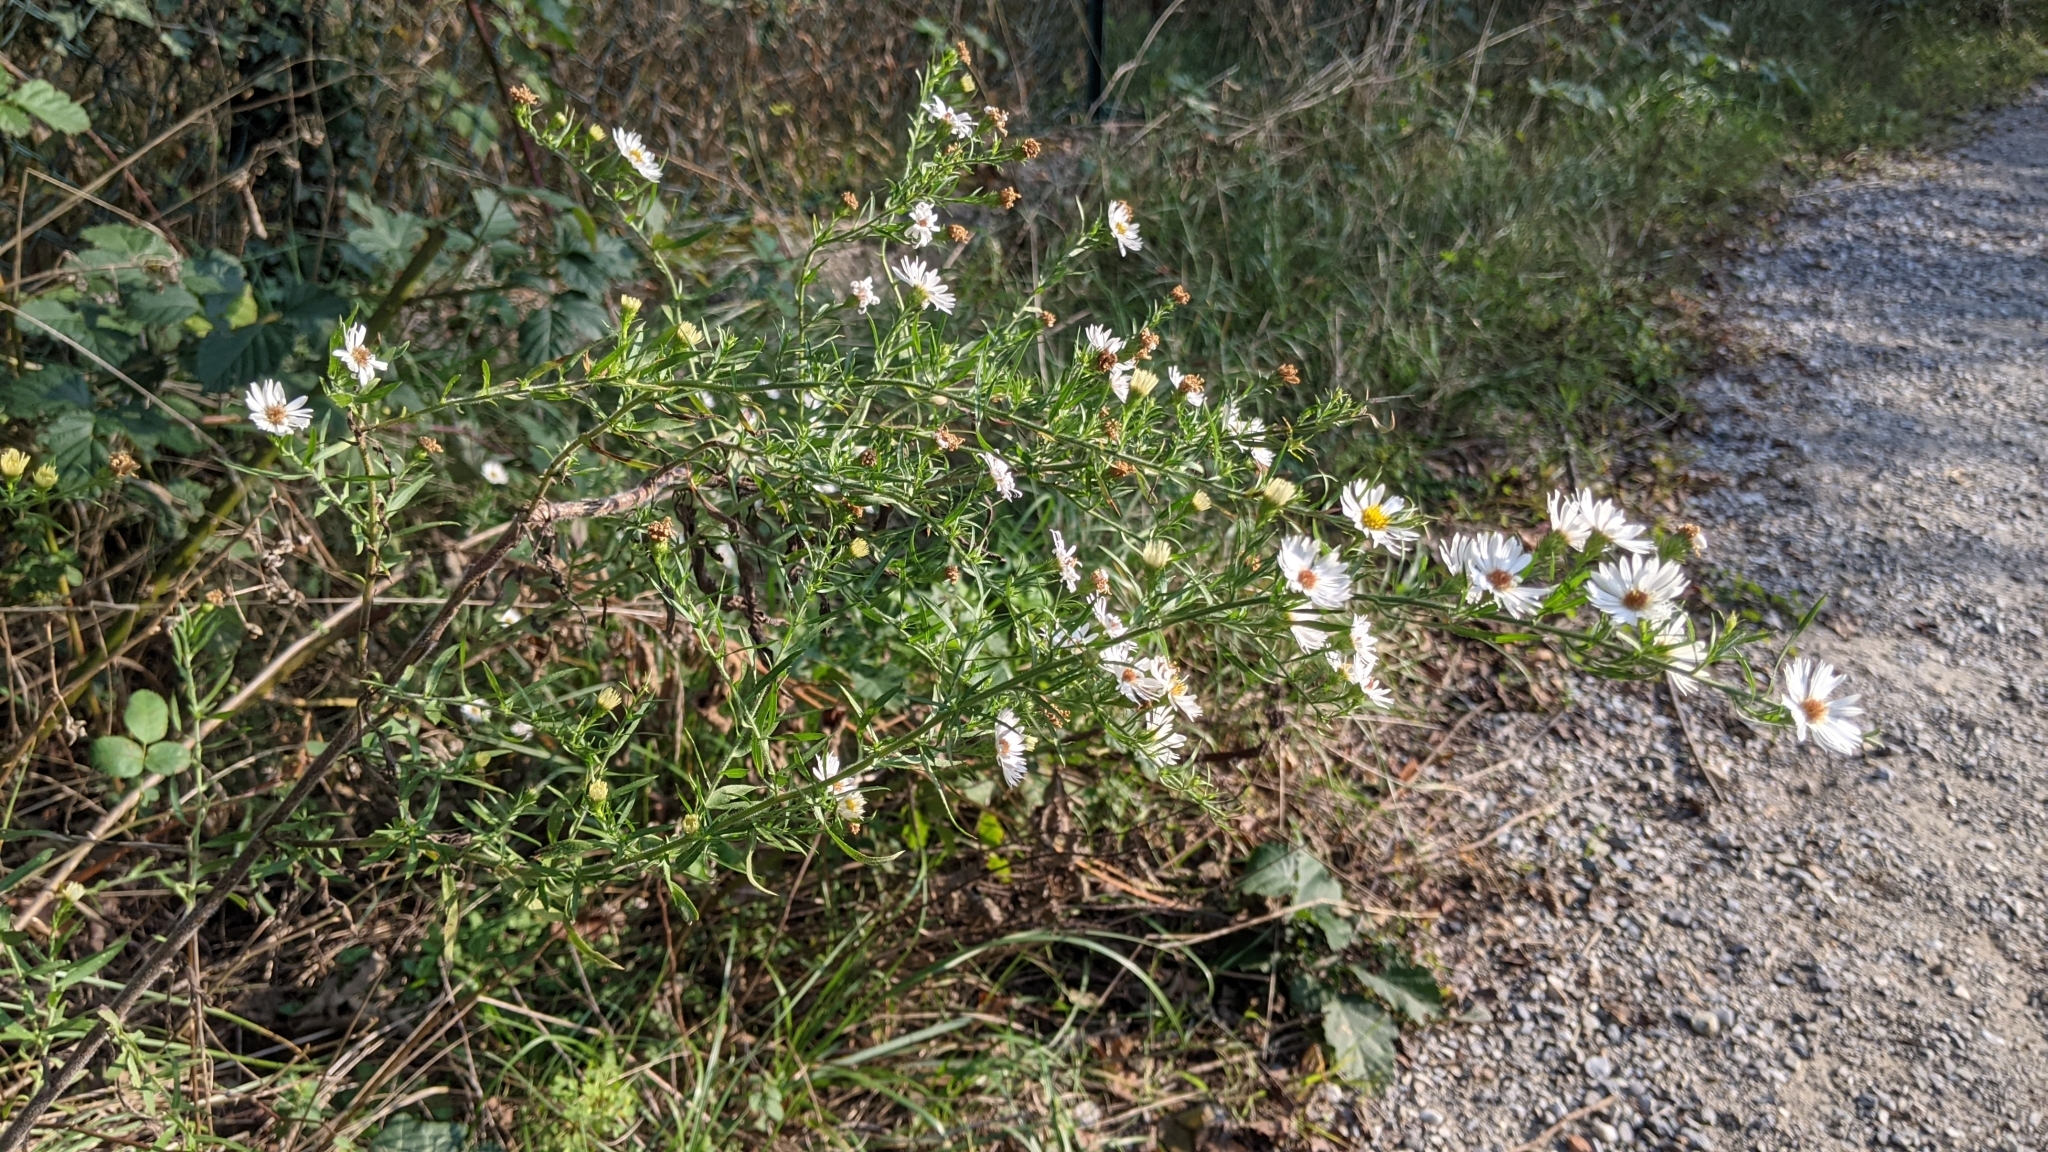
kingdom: Plantae
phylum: Tracheophyta
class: Magnoliopsida
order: Asterales
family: Asteraceae
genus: Symphyotrichum
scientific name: Symphyotrichum lanceolatum
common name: Panicled aster
